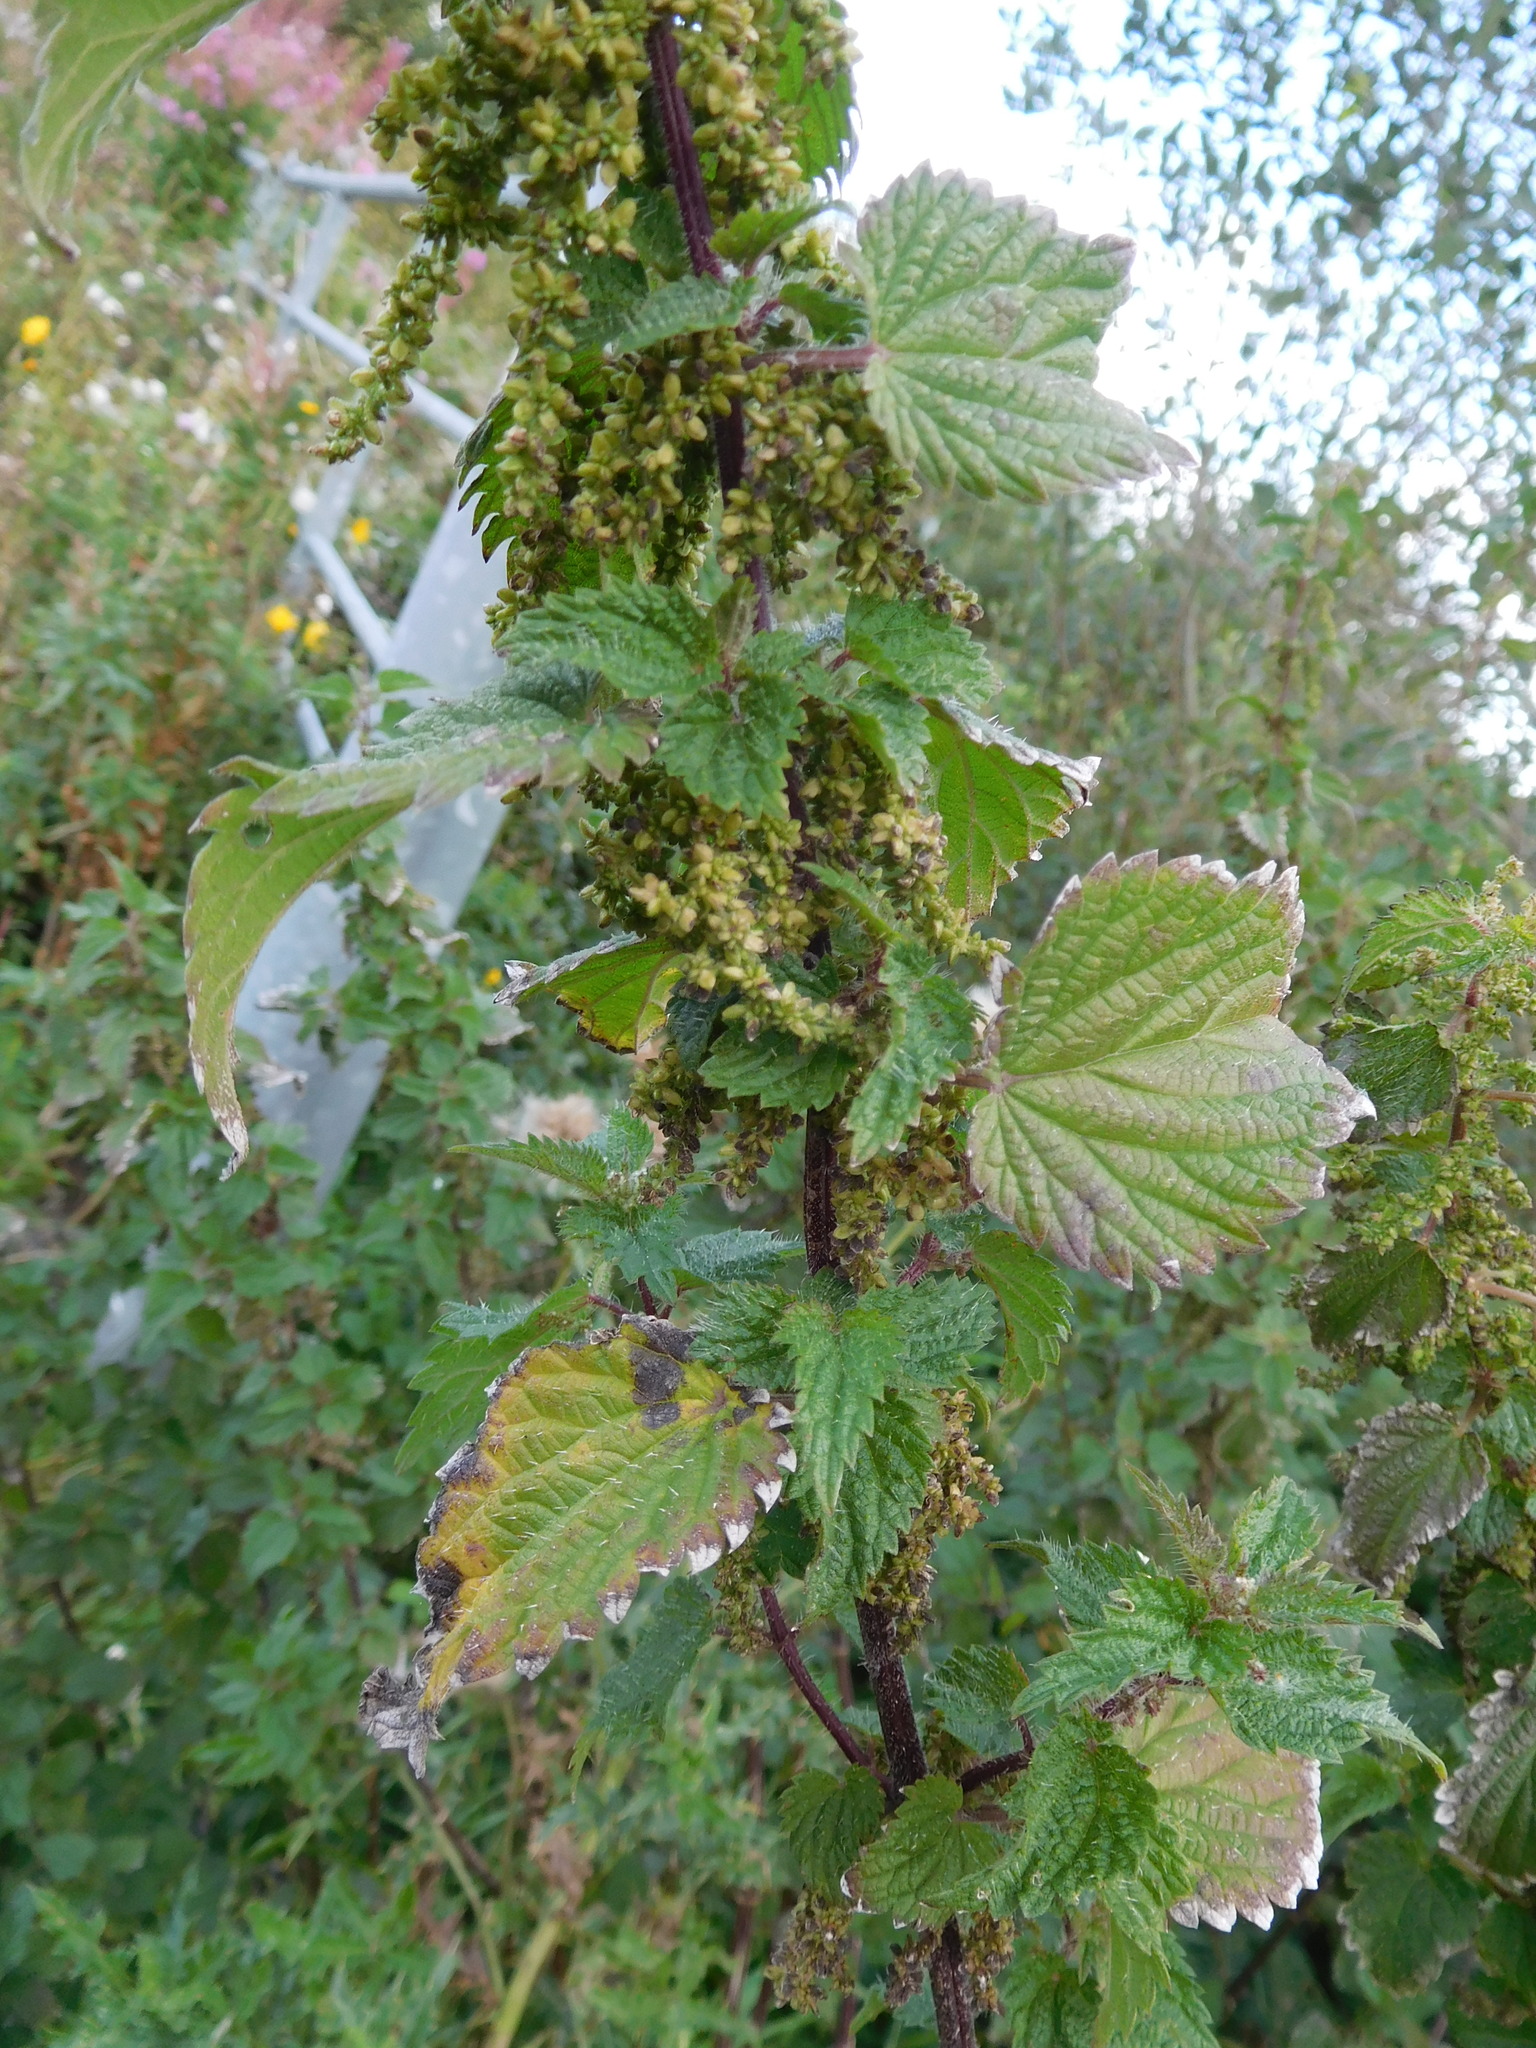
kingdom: Plantae
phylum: Tracheophyta
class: Magnoliopsida
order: Rosales
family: Urticaceae
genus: Urtica
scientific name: Urtica dioica
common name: Common nettle
